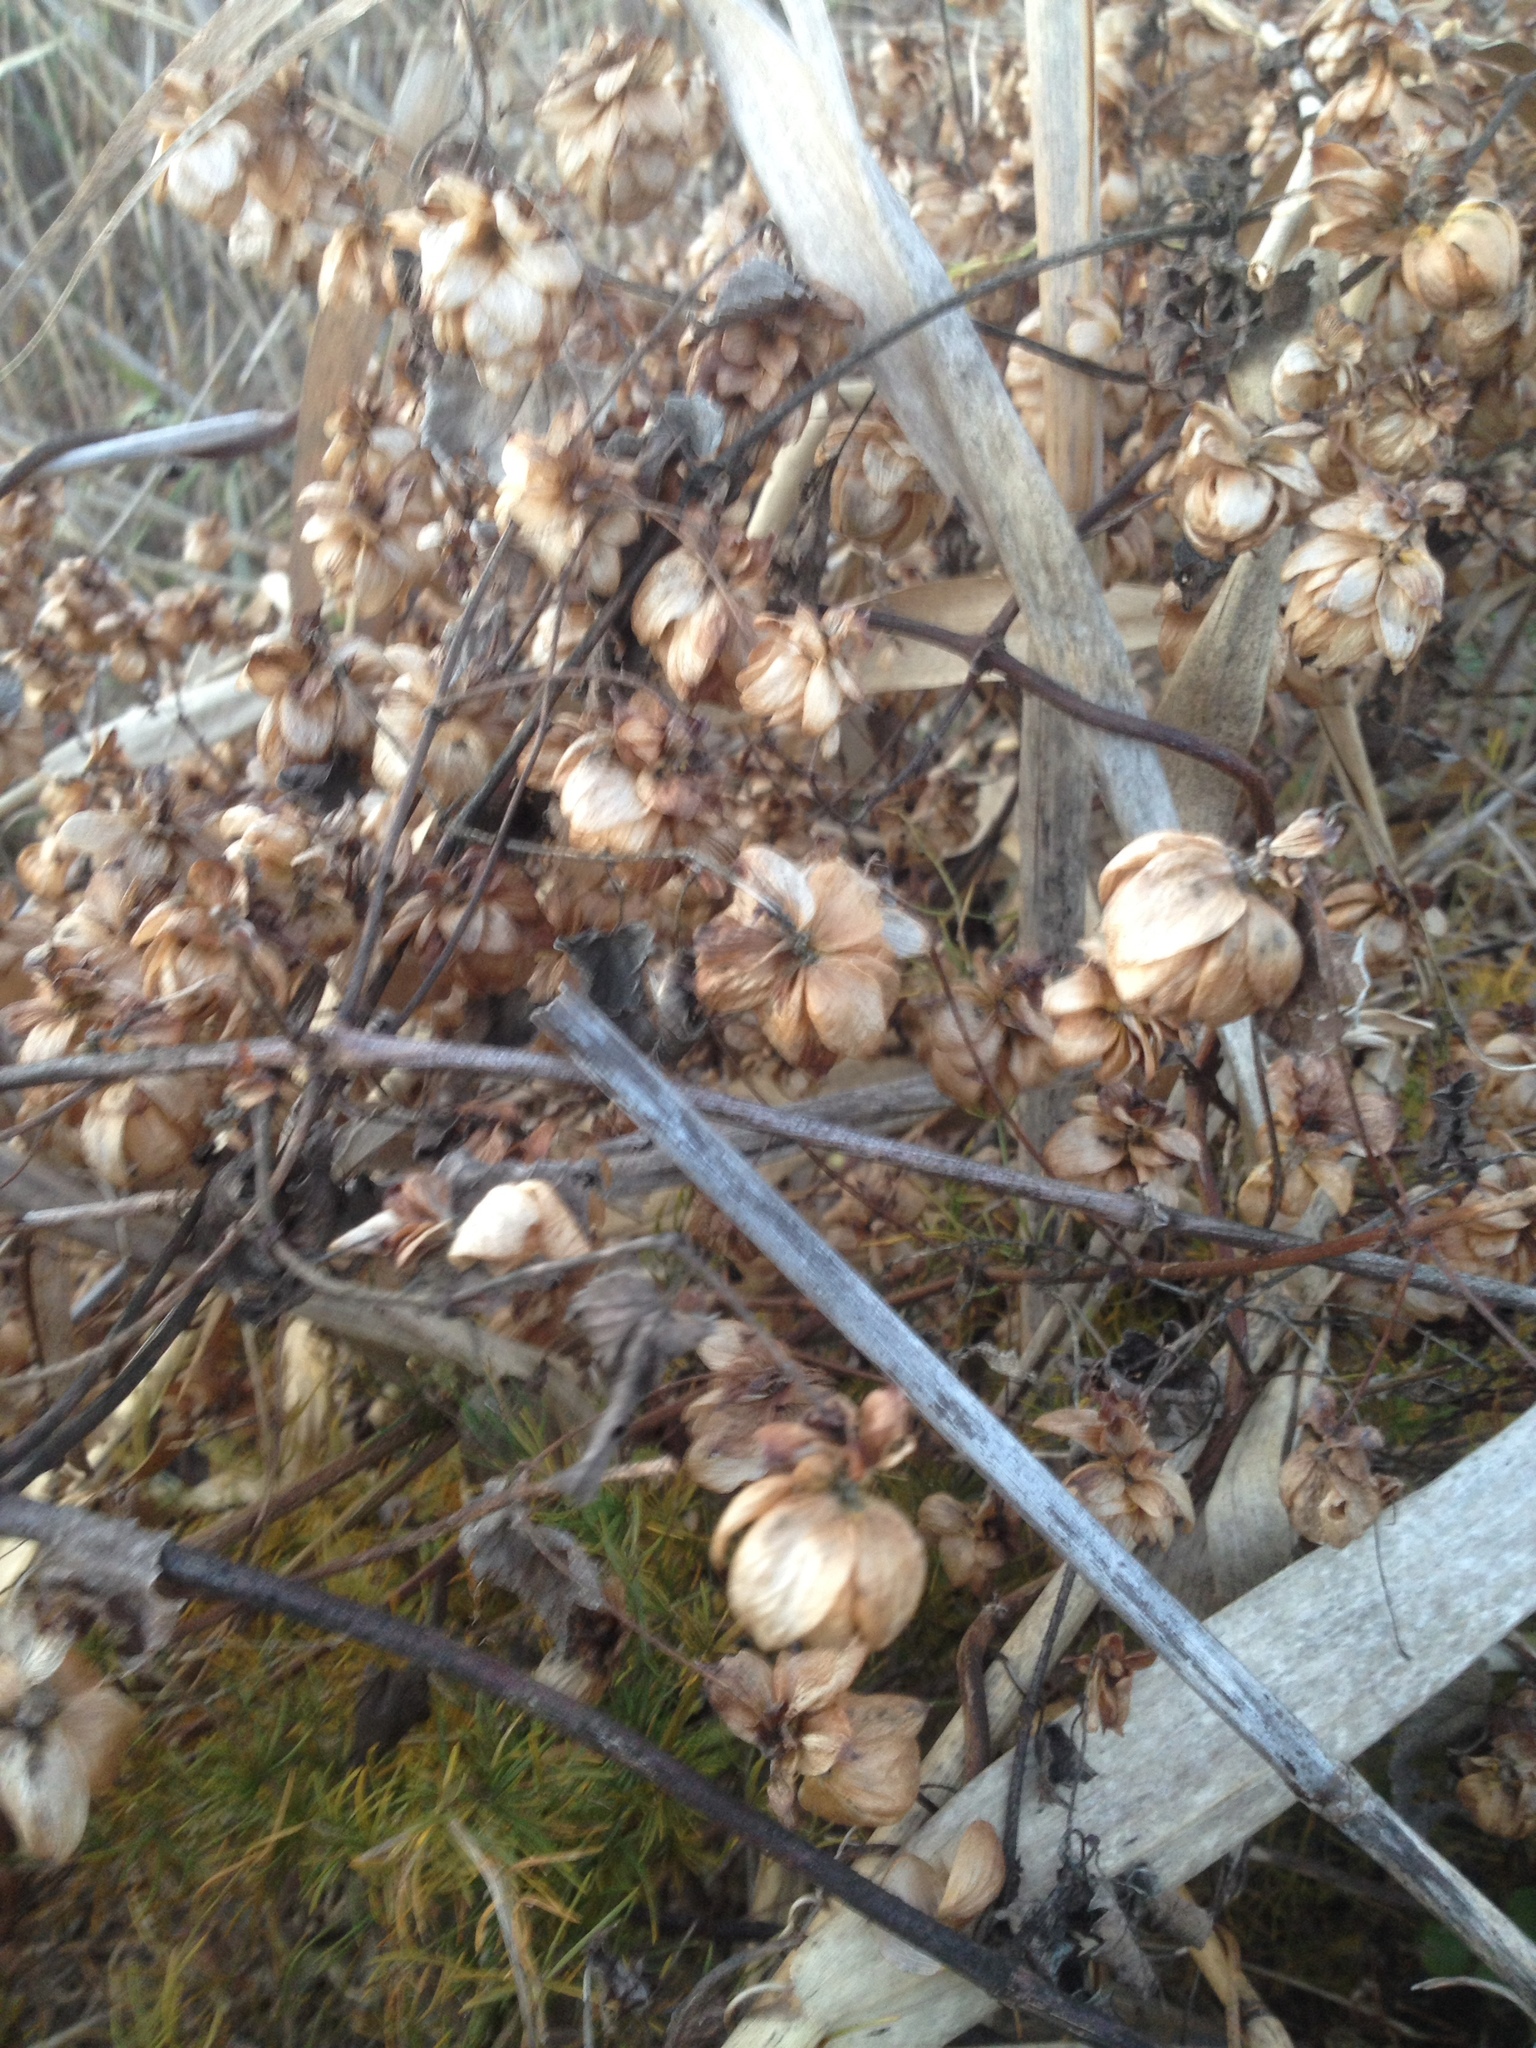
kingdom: Plantae
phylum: Tracheophyta
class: Magnoliopsida
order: Rosales
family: Cannabaceae
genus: Humulus
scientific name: Humulus lupulus
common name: Hop
